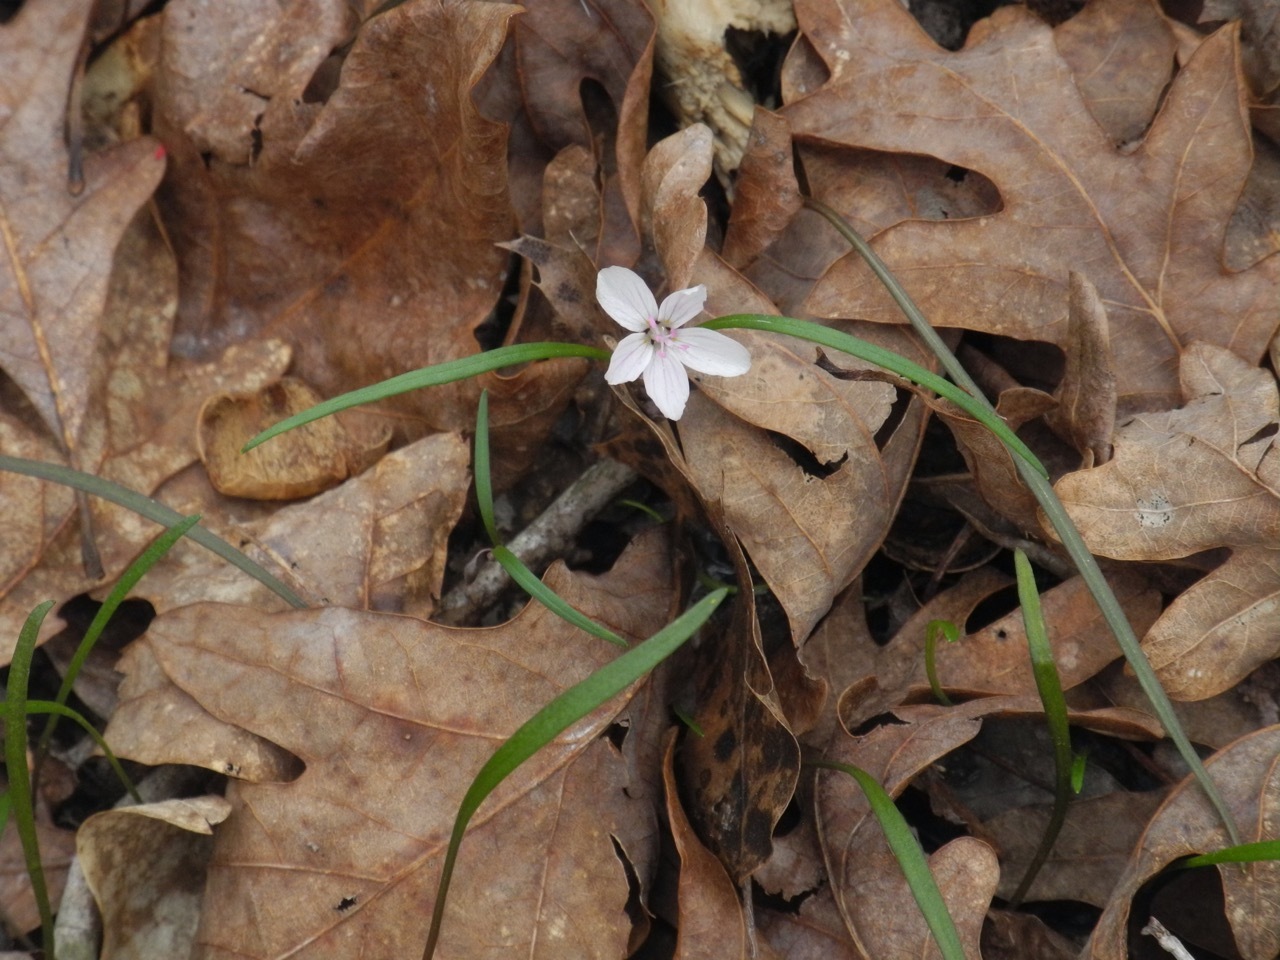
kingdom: Plantae
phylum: Tracheophyta
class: Magnoliopsida
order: Caryophyllales
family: Montiaceae
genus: Claytonia
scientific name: Claytonia virginica
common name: Virginia springbeauty
